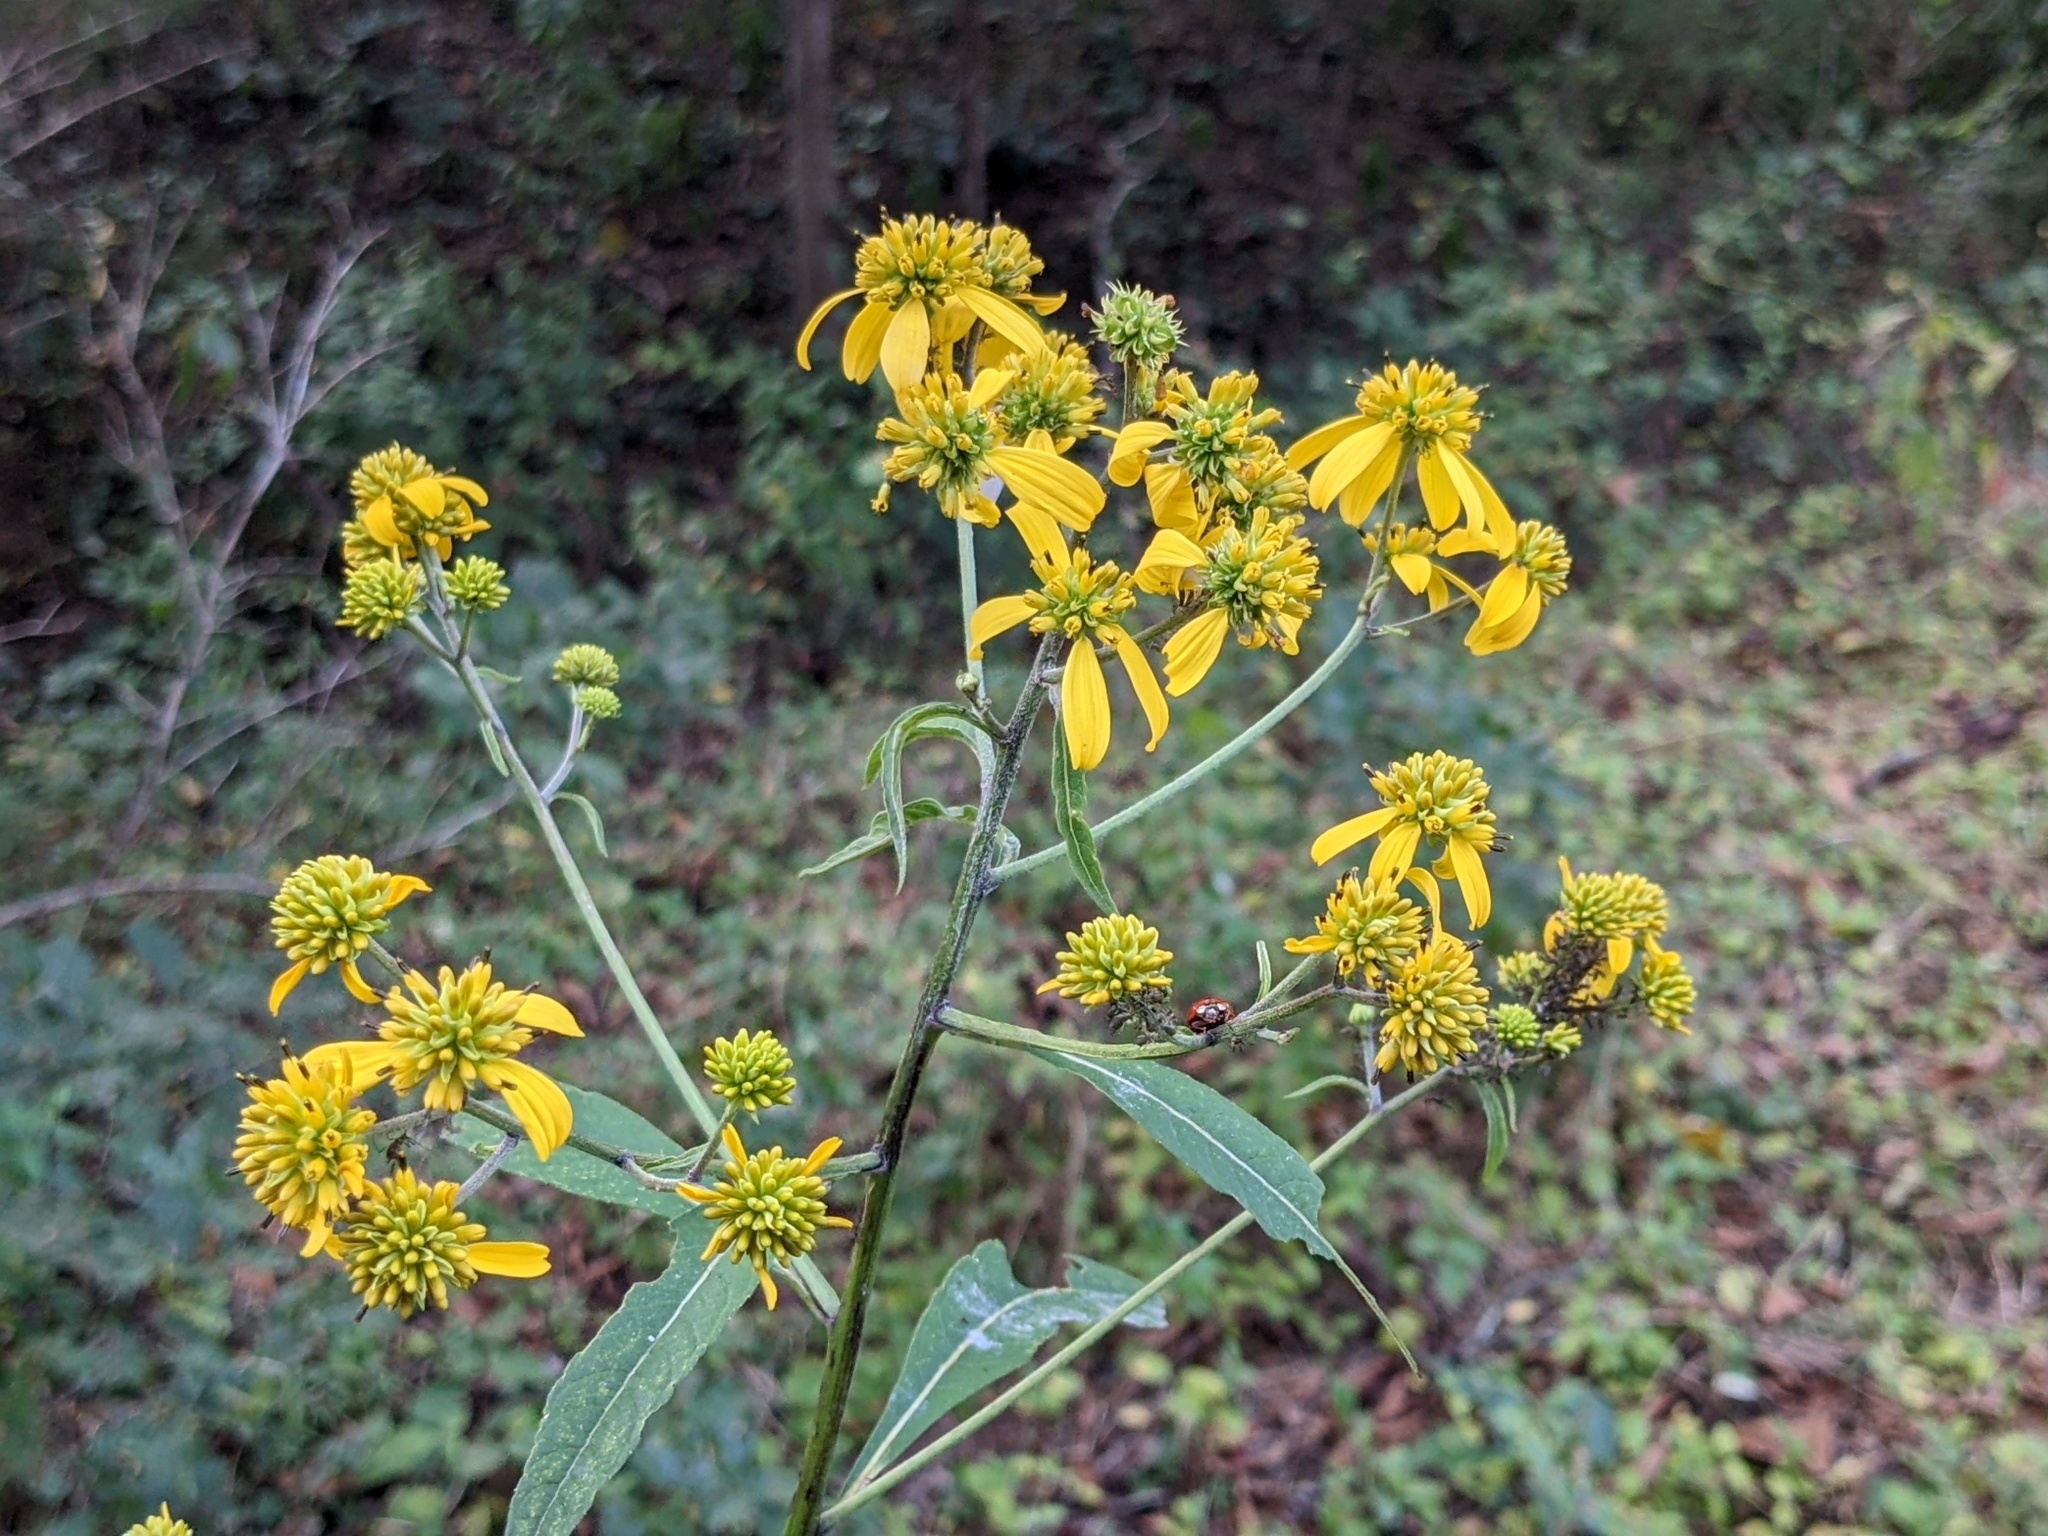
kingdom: Plantae
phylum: Tracheophyta
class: Magnoliopsida
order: Asterales
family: Asteraceae
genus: Verbesina
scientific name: Verbesina alternifolia
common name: Wingstem
